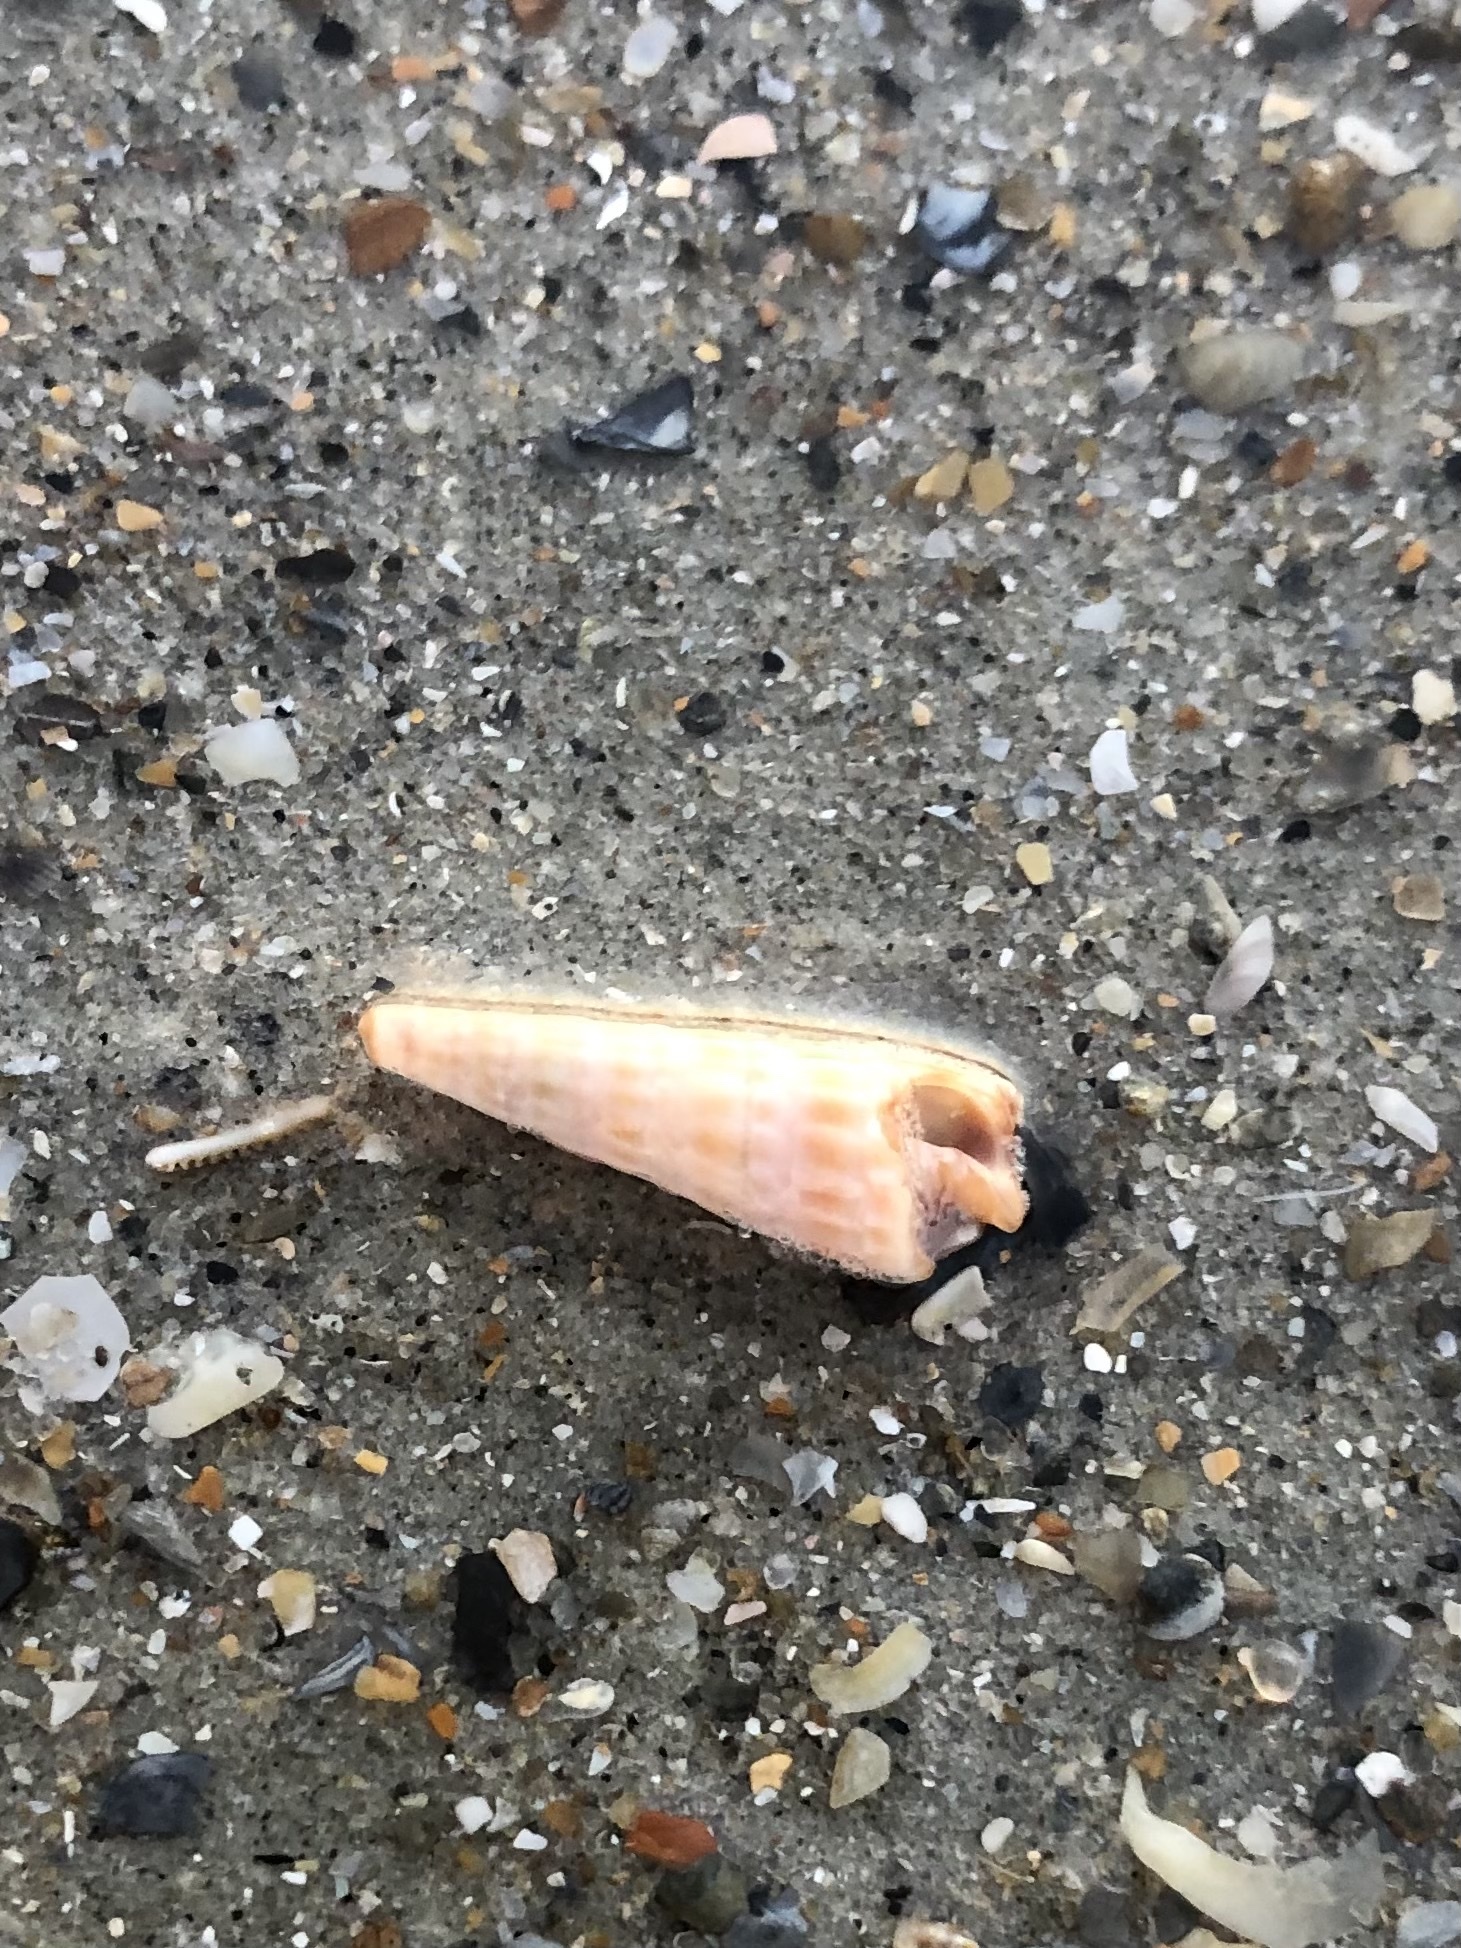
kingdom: Animalia
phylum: Mollusca
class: Gastropoda
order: Neogastropoda
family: Terebridae
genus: Neoterebra
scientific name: Neoterebra dislocata
